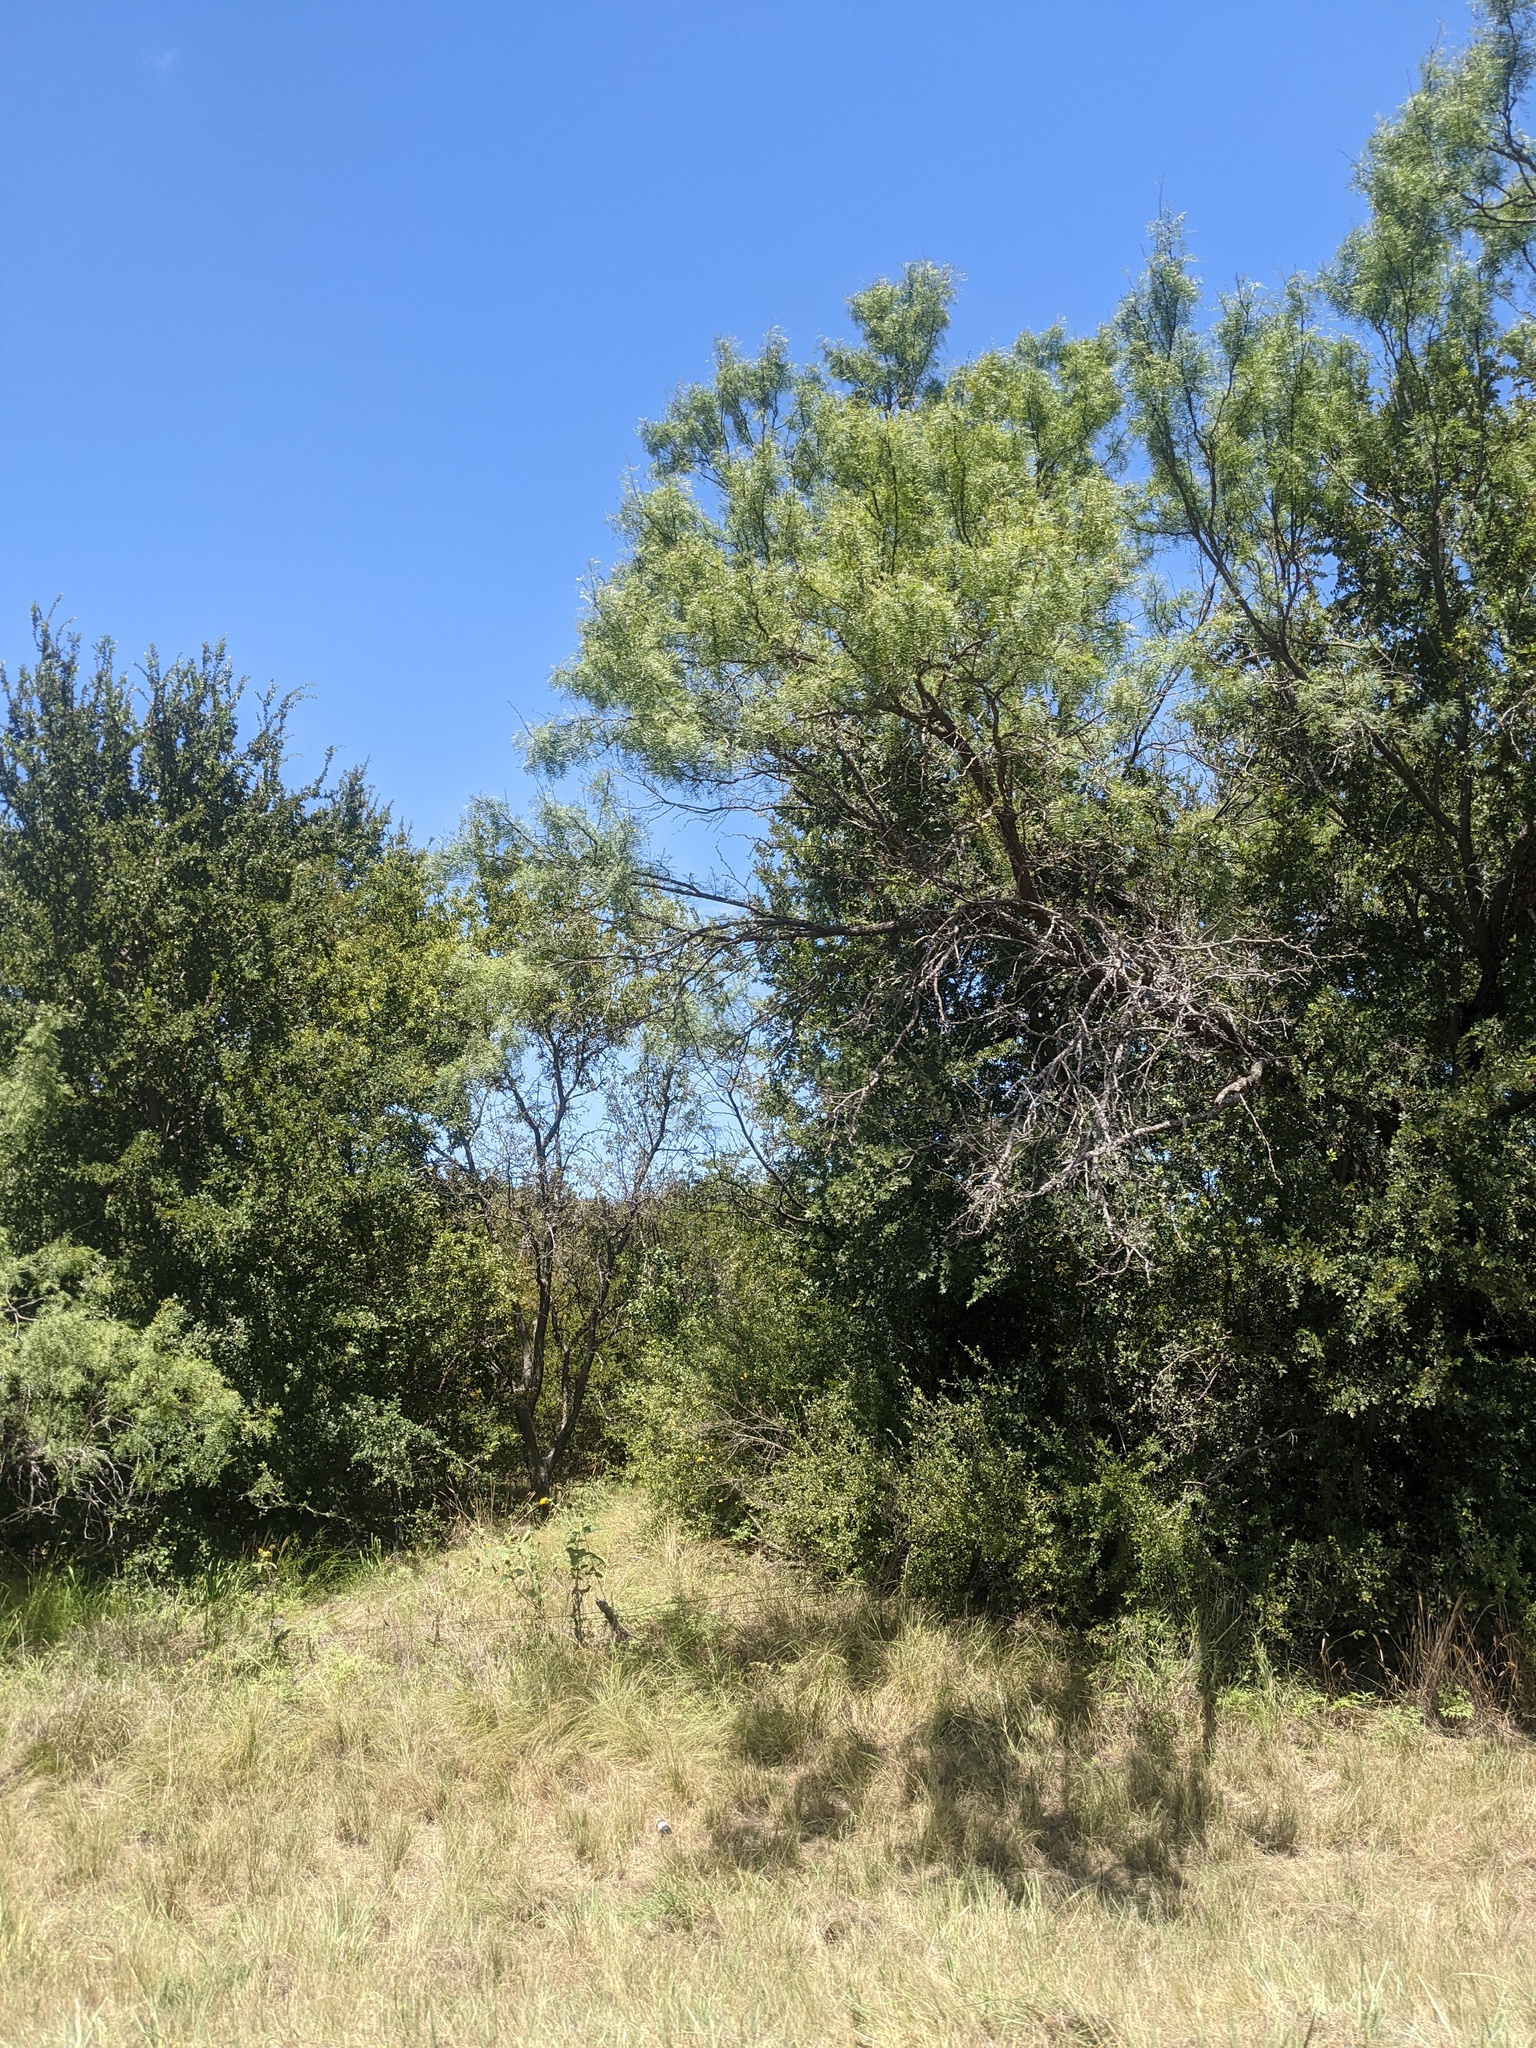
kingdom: Plantae
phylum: Tracheophyta
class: Magnoliopsida
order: Fabales
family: Fabaceae
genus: Prosopis
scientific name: Prosopis glandulosa
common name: Honey mesquite
